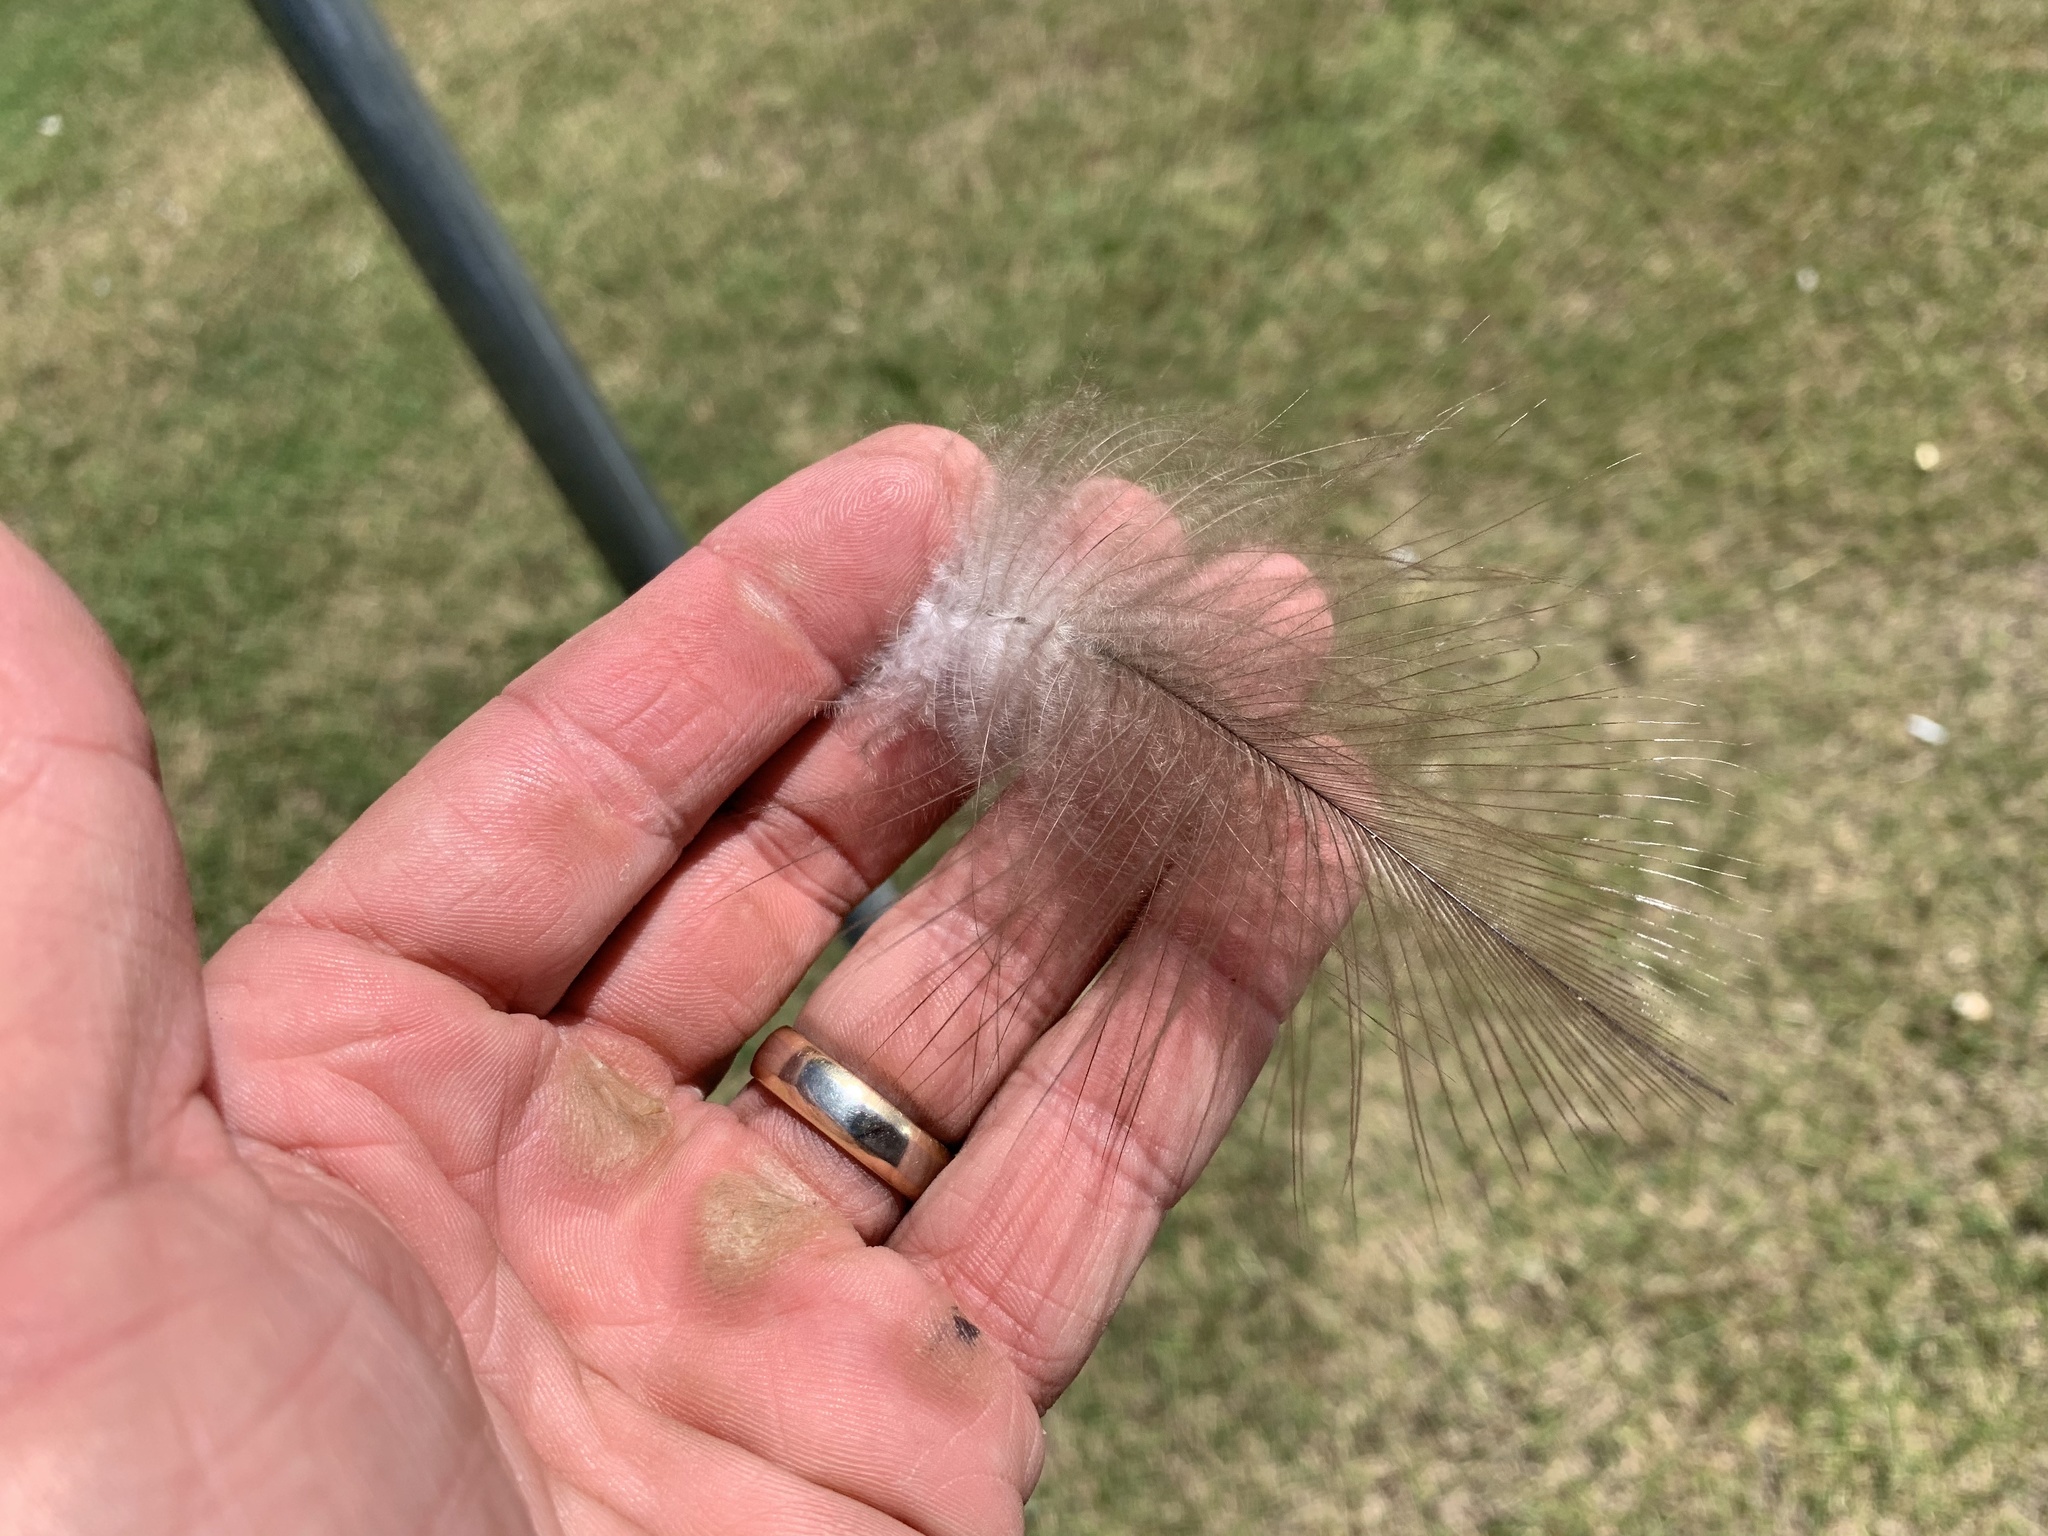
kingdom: Animalia
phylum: Chordata
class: Aves
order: Anseriformes
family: Anatidae
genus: Branta
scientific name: Branta canadensis
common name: Canada goose
